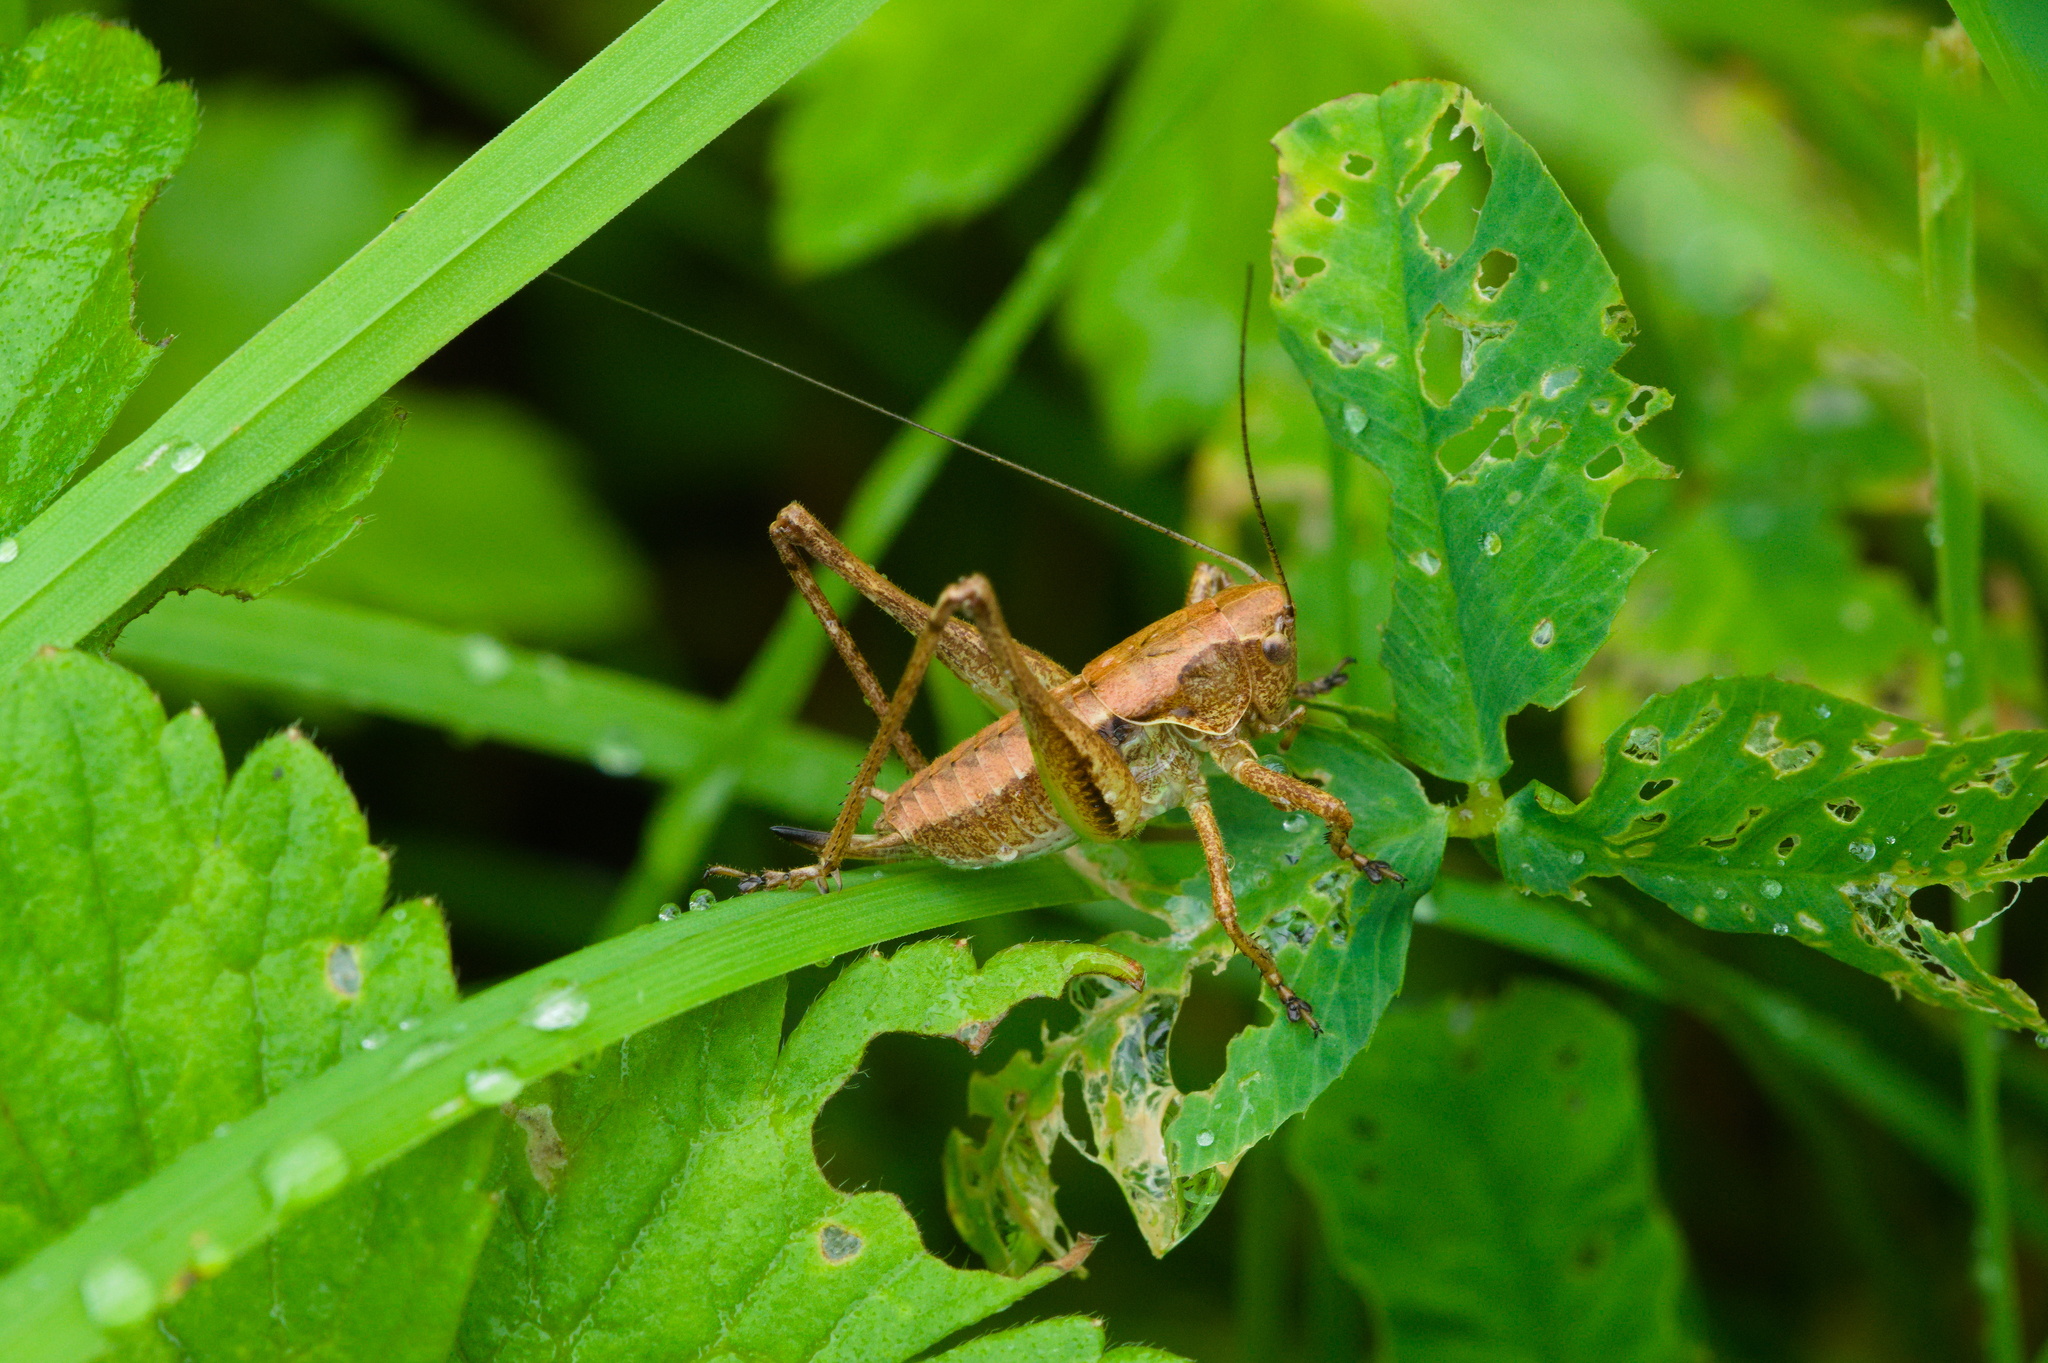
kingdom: Animalia
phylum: Arthropoda
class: Insecta
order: Orthoptera
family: Tettigoniidae
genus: Pholidoptera
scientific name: Pholidoptera griseoaptera
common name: Dark bush-cricket
